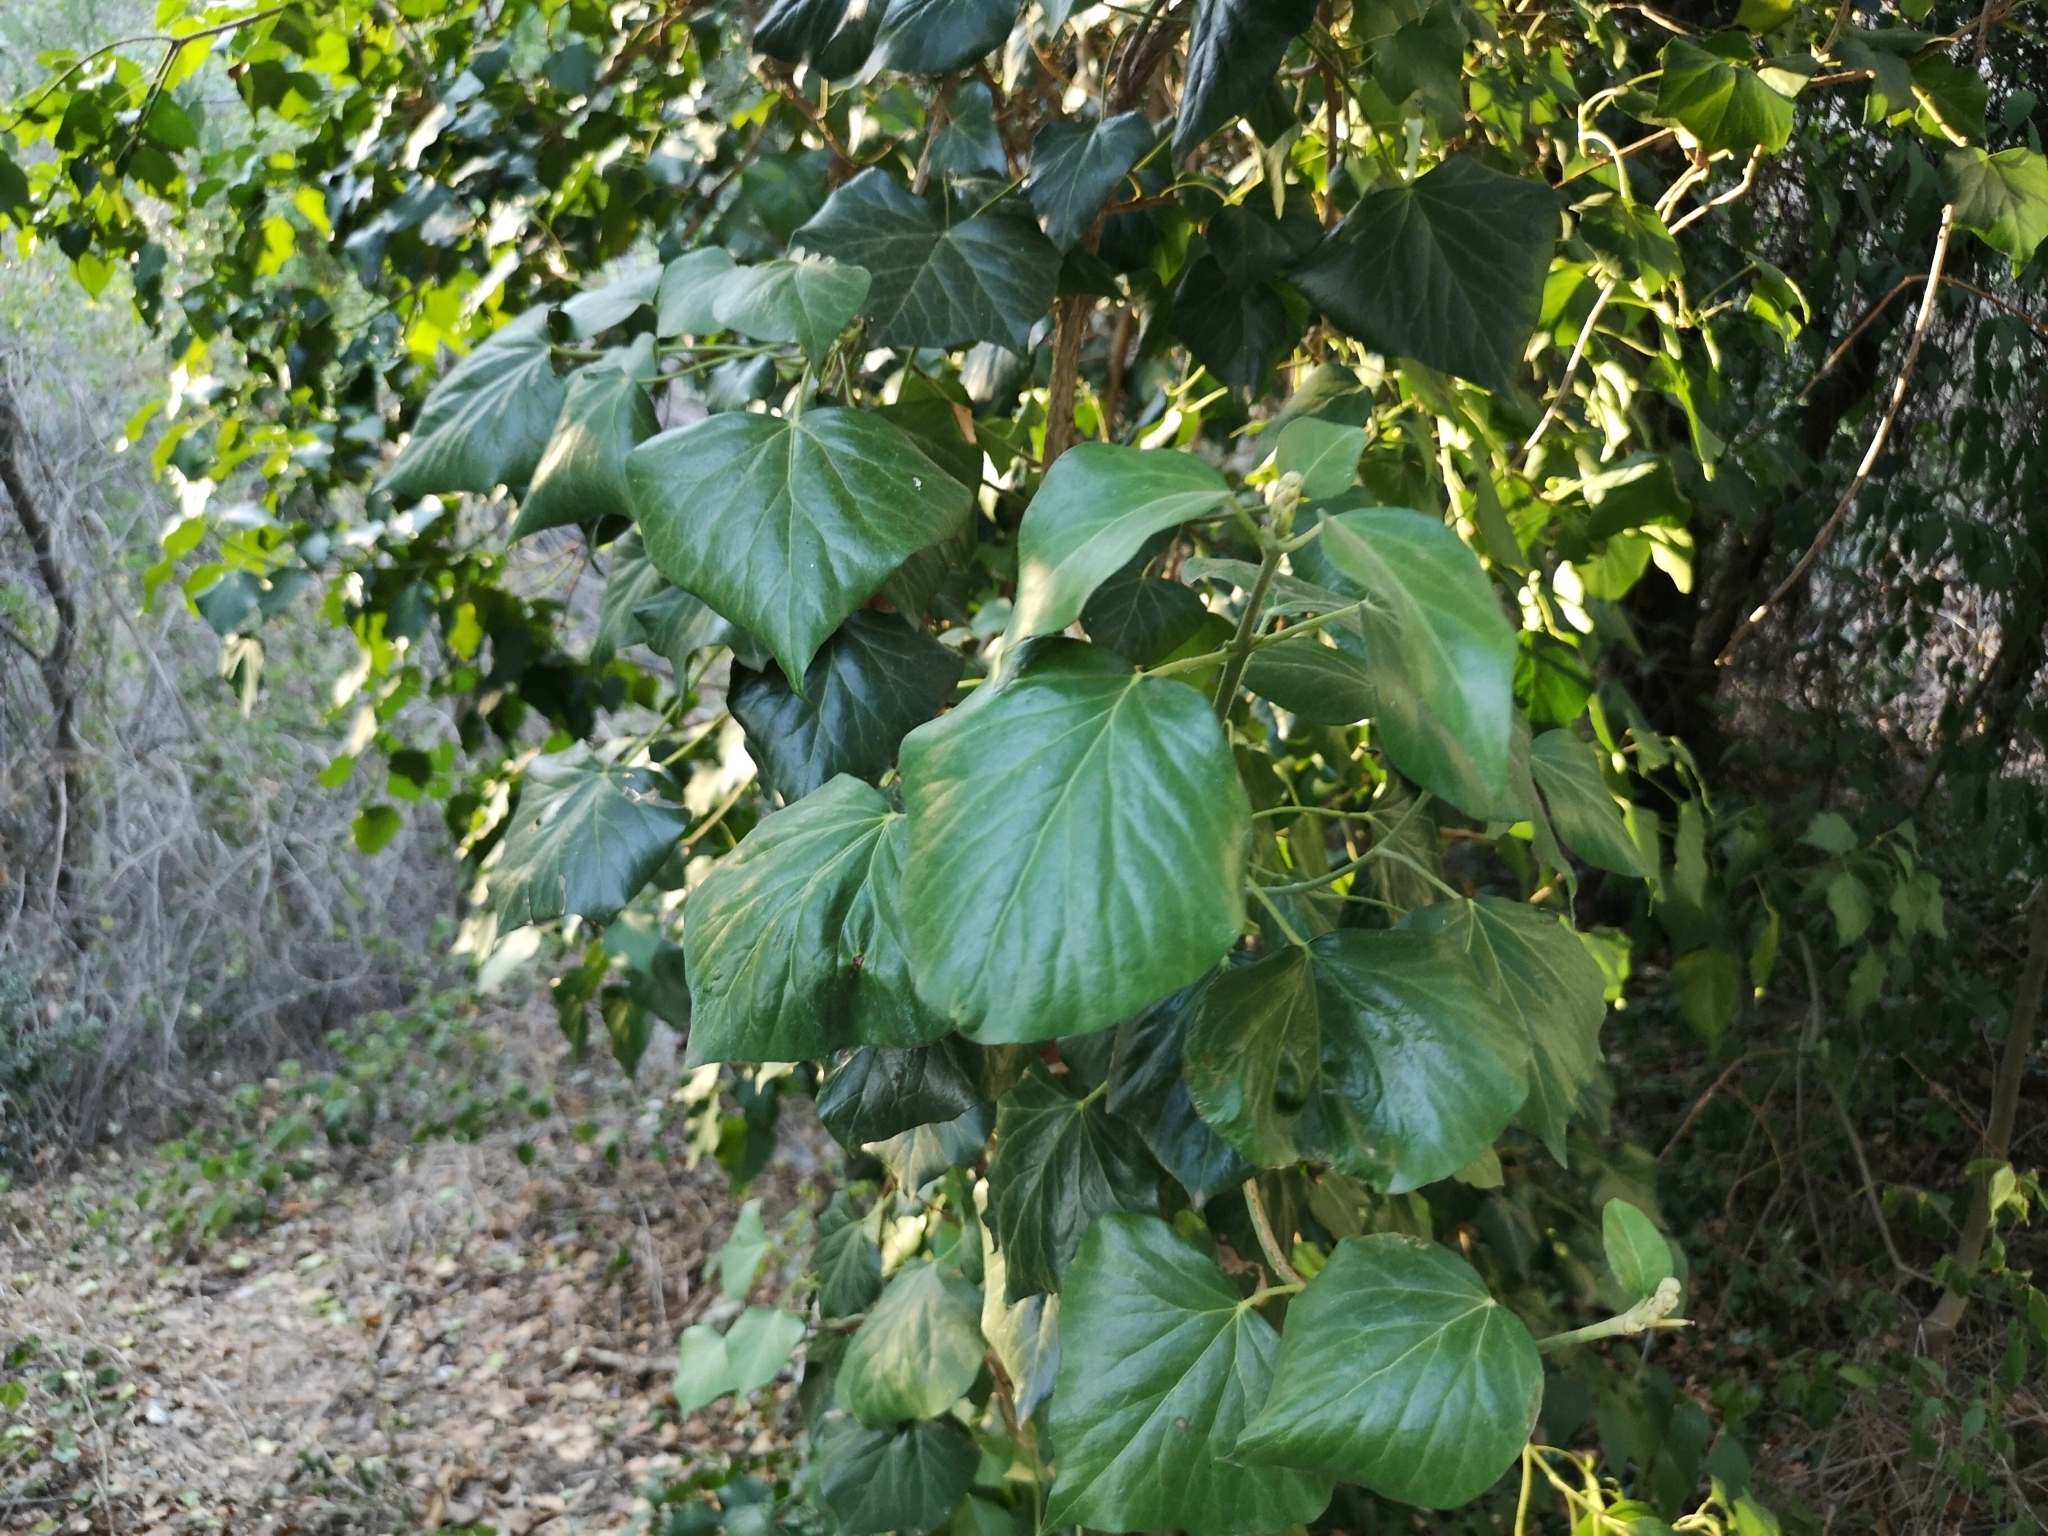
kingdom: Plantae
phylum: Tracheophyta
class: Magnoliopsida
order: Apiales
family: Araliaceae
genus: Hedera
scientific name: Hedera helix
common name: Ivy
